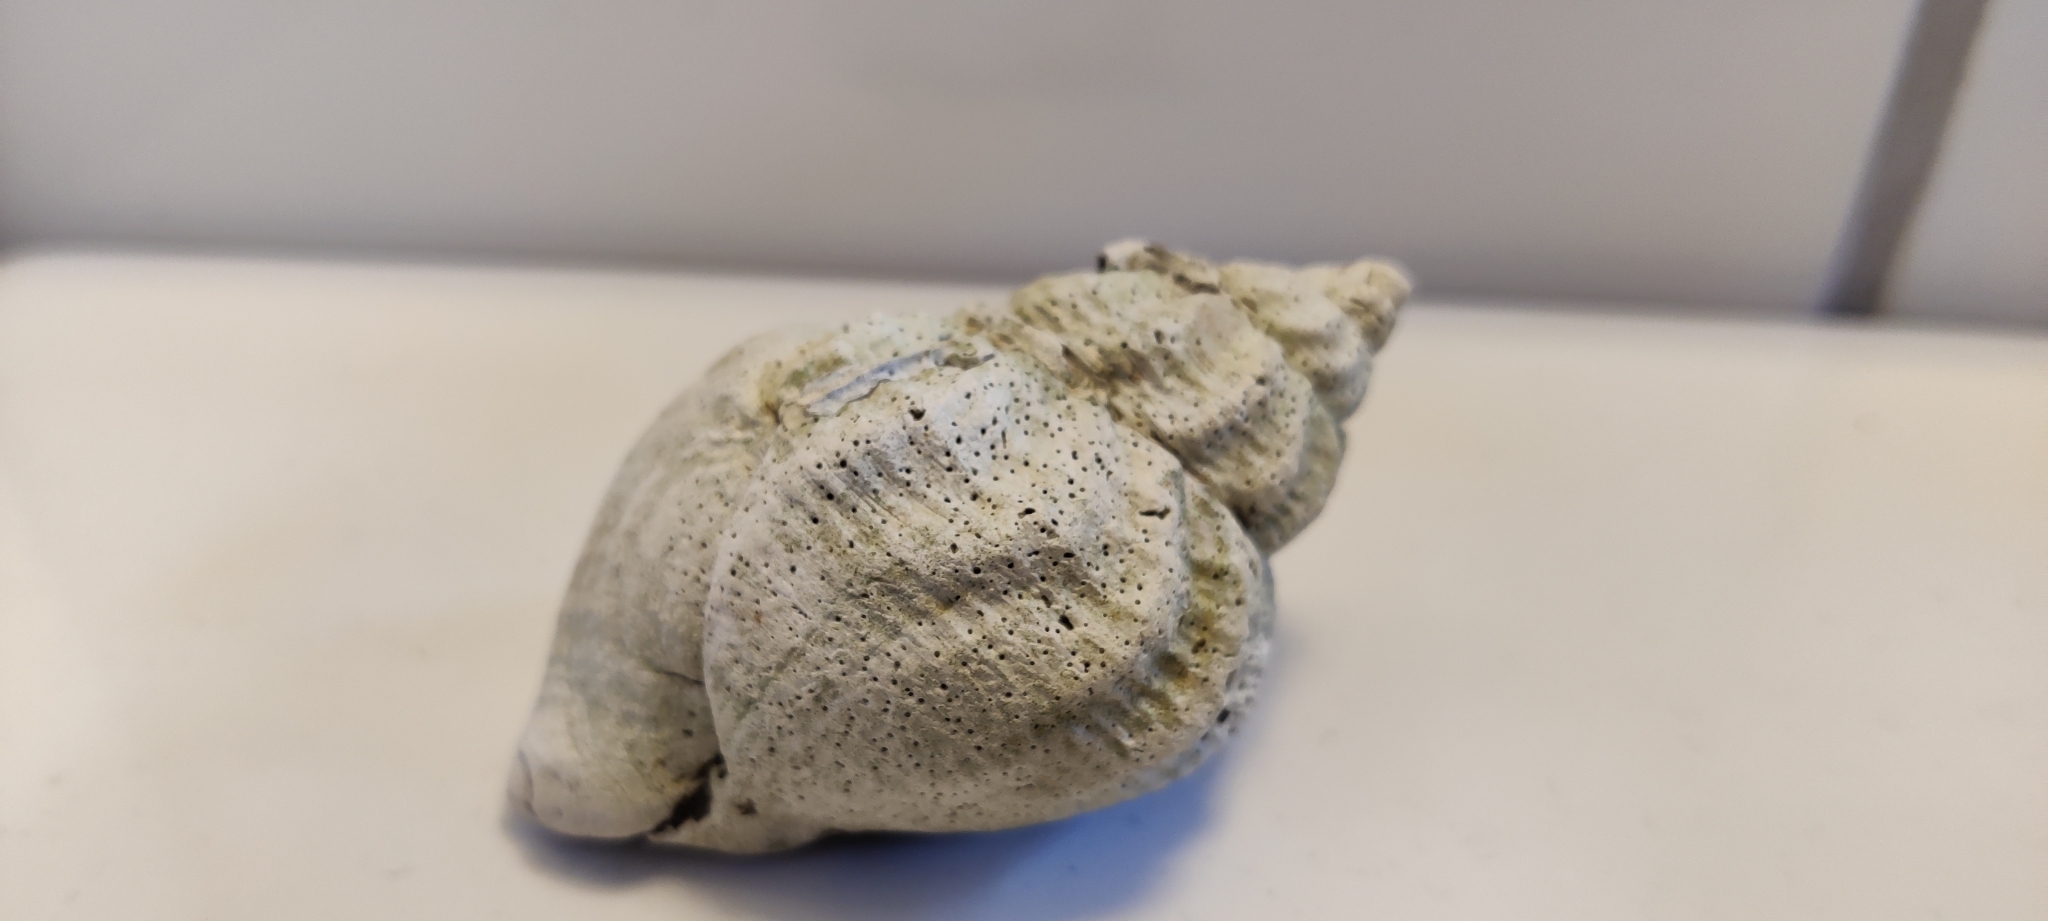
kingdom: Animalia
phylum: Mollusca
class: Gastropoda
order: Neogastropoda
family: Buccinidae
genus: Buccinum
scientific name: Buccinum undatum
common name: Common whelk
